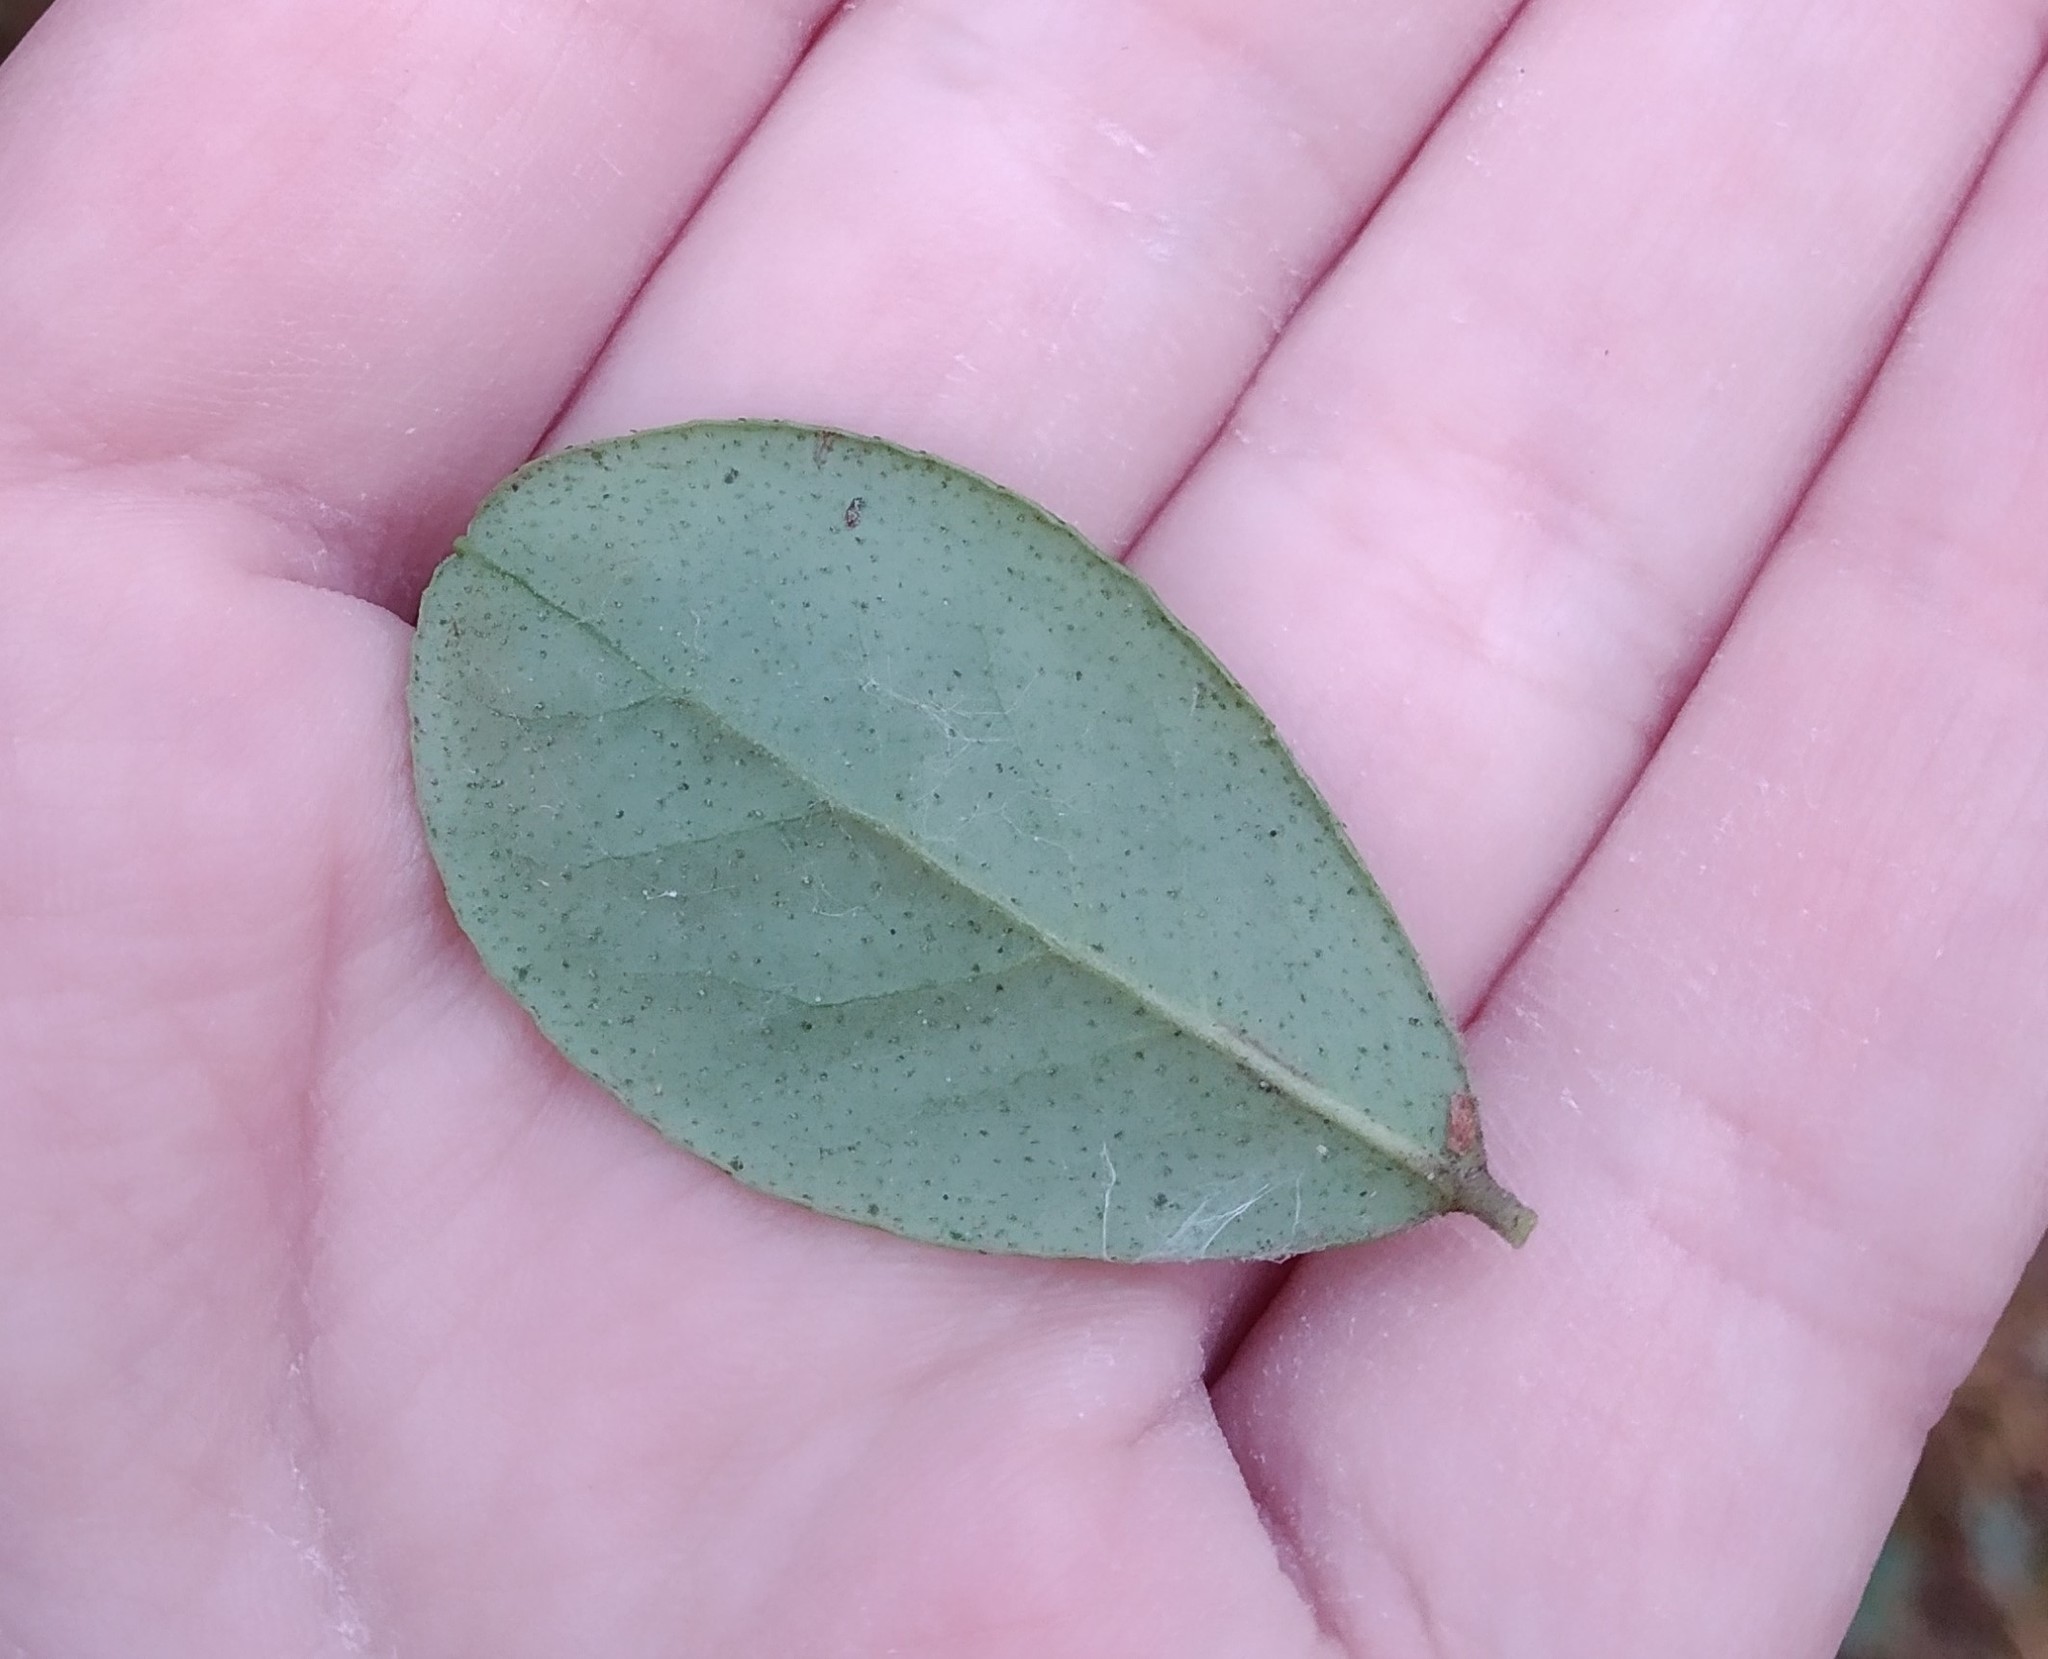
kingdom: Plantae
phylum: Tracheophyta
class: Magnoliopsida
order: Ericales
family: Ericaceae
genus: Vaccinium
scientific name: Vaccinium vitis-idaea
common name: Cowberry
